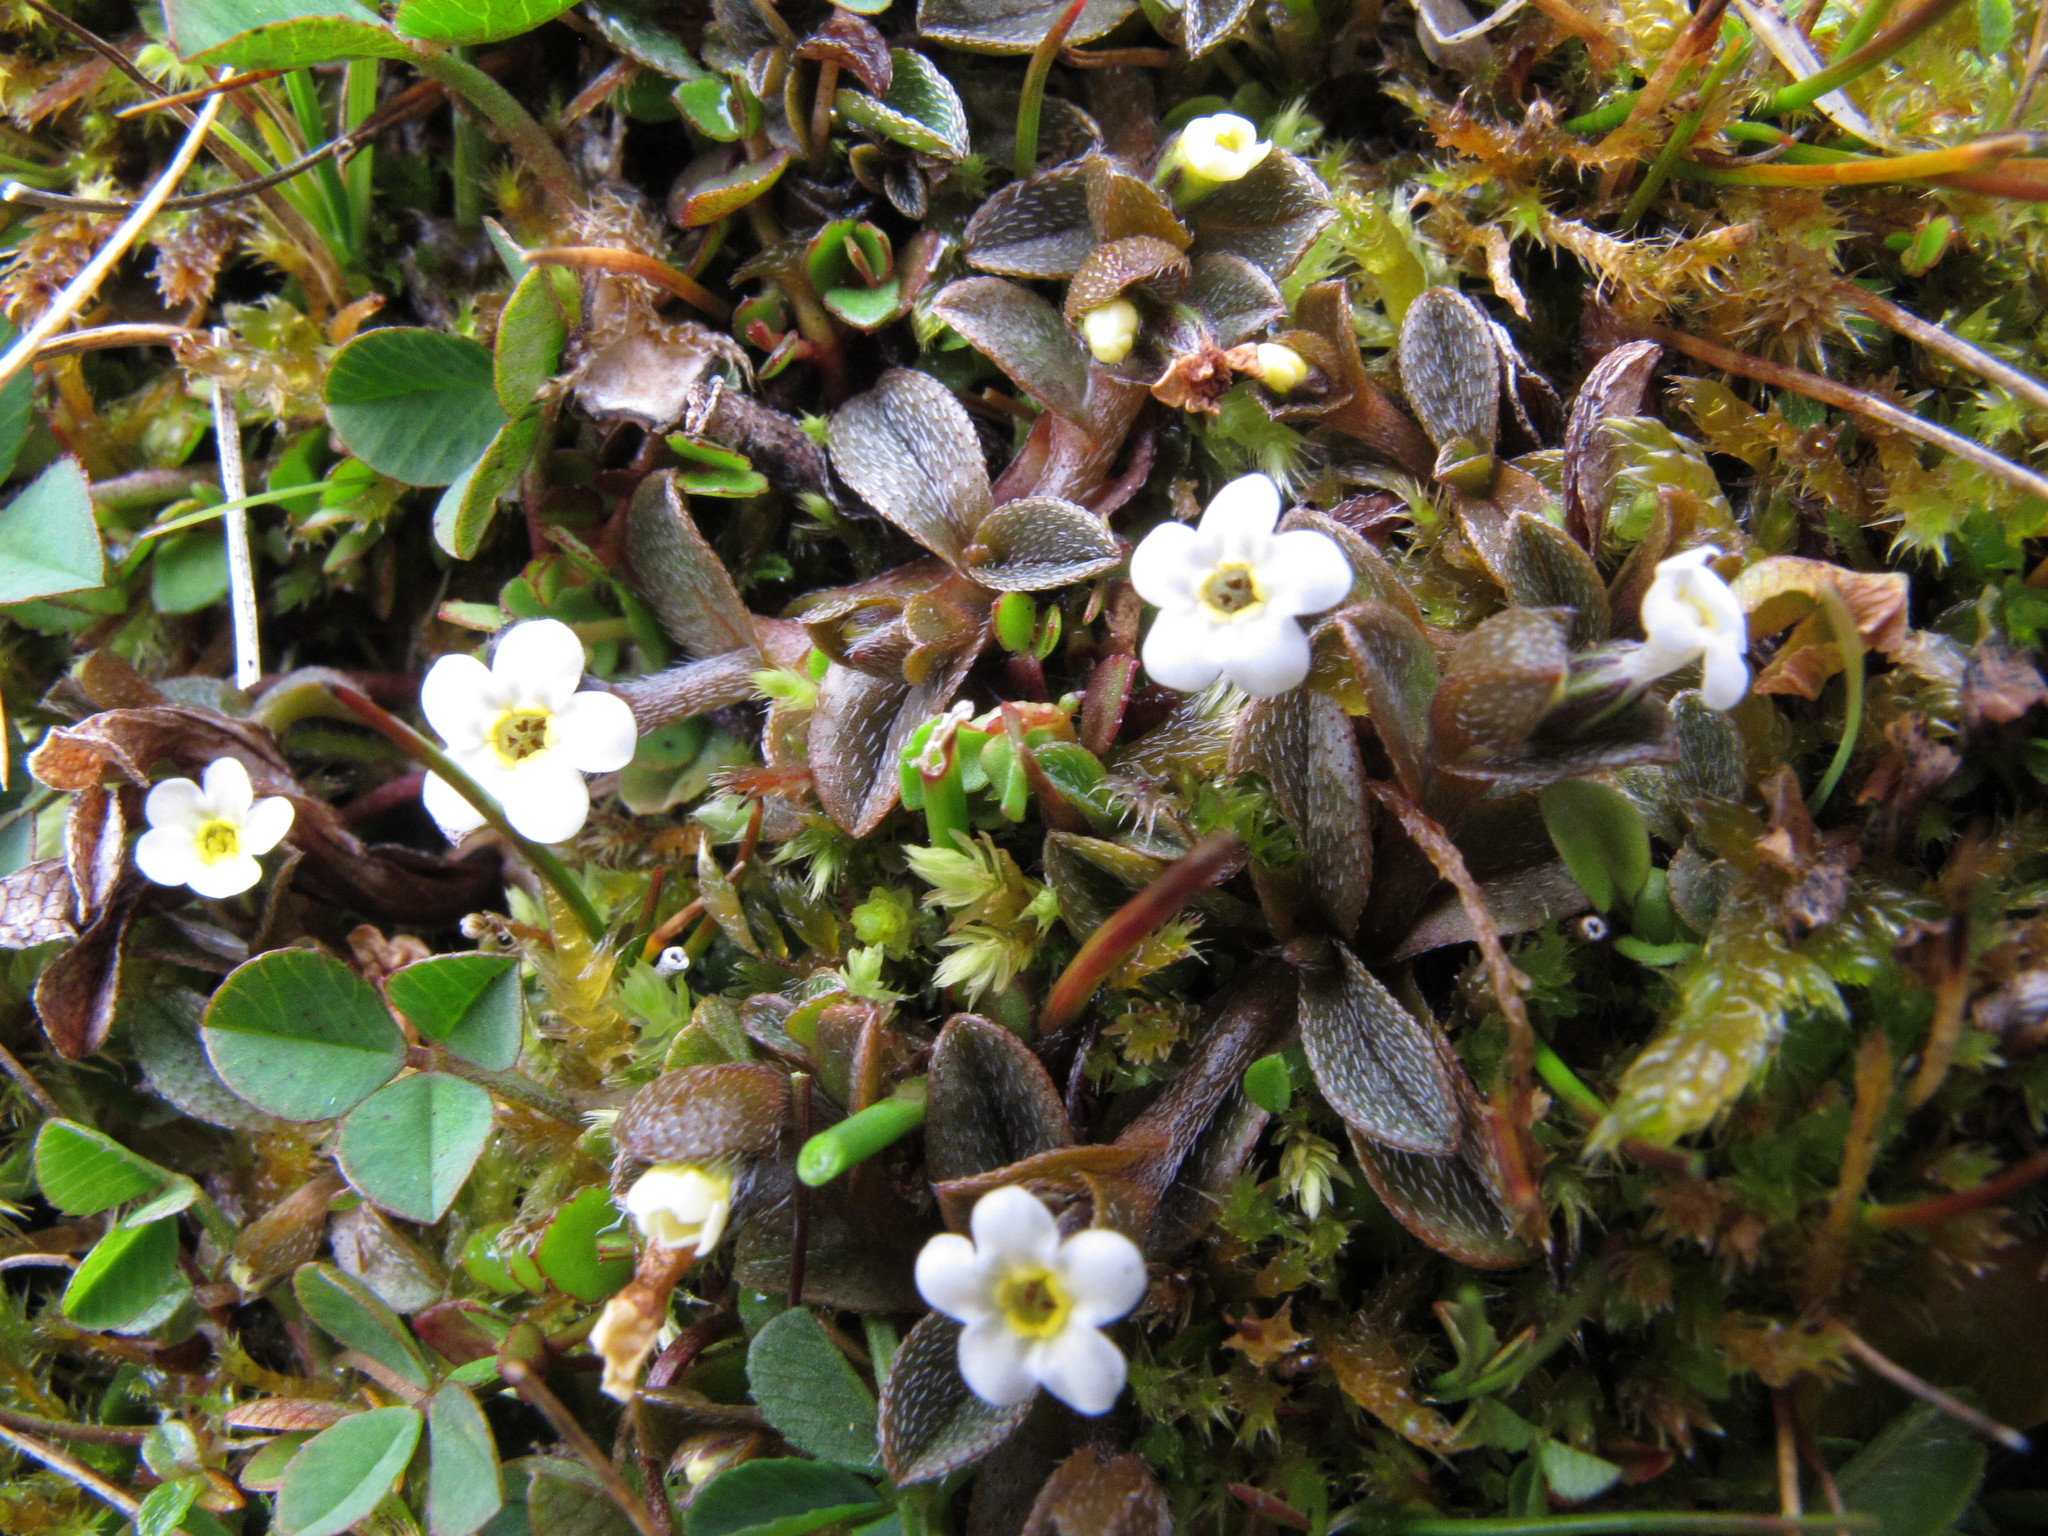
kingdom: Plantae
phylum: Tracheophyta
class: Magnoliopsida
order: Boraginales
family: Boraginaceae
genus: Myosotis
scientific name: Myosotis bryonoma
